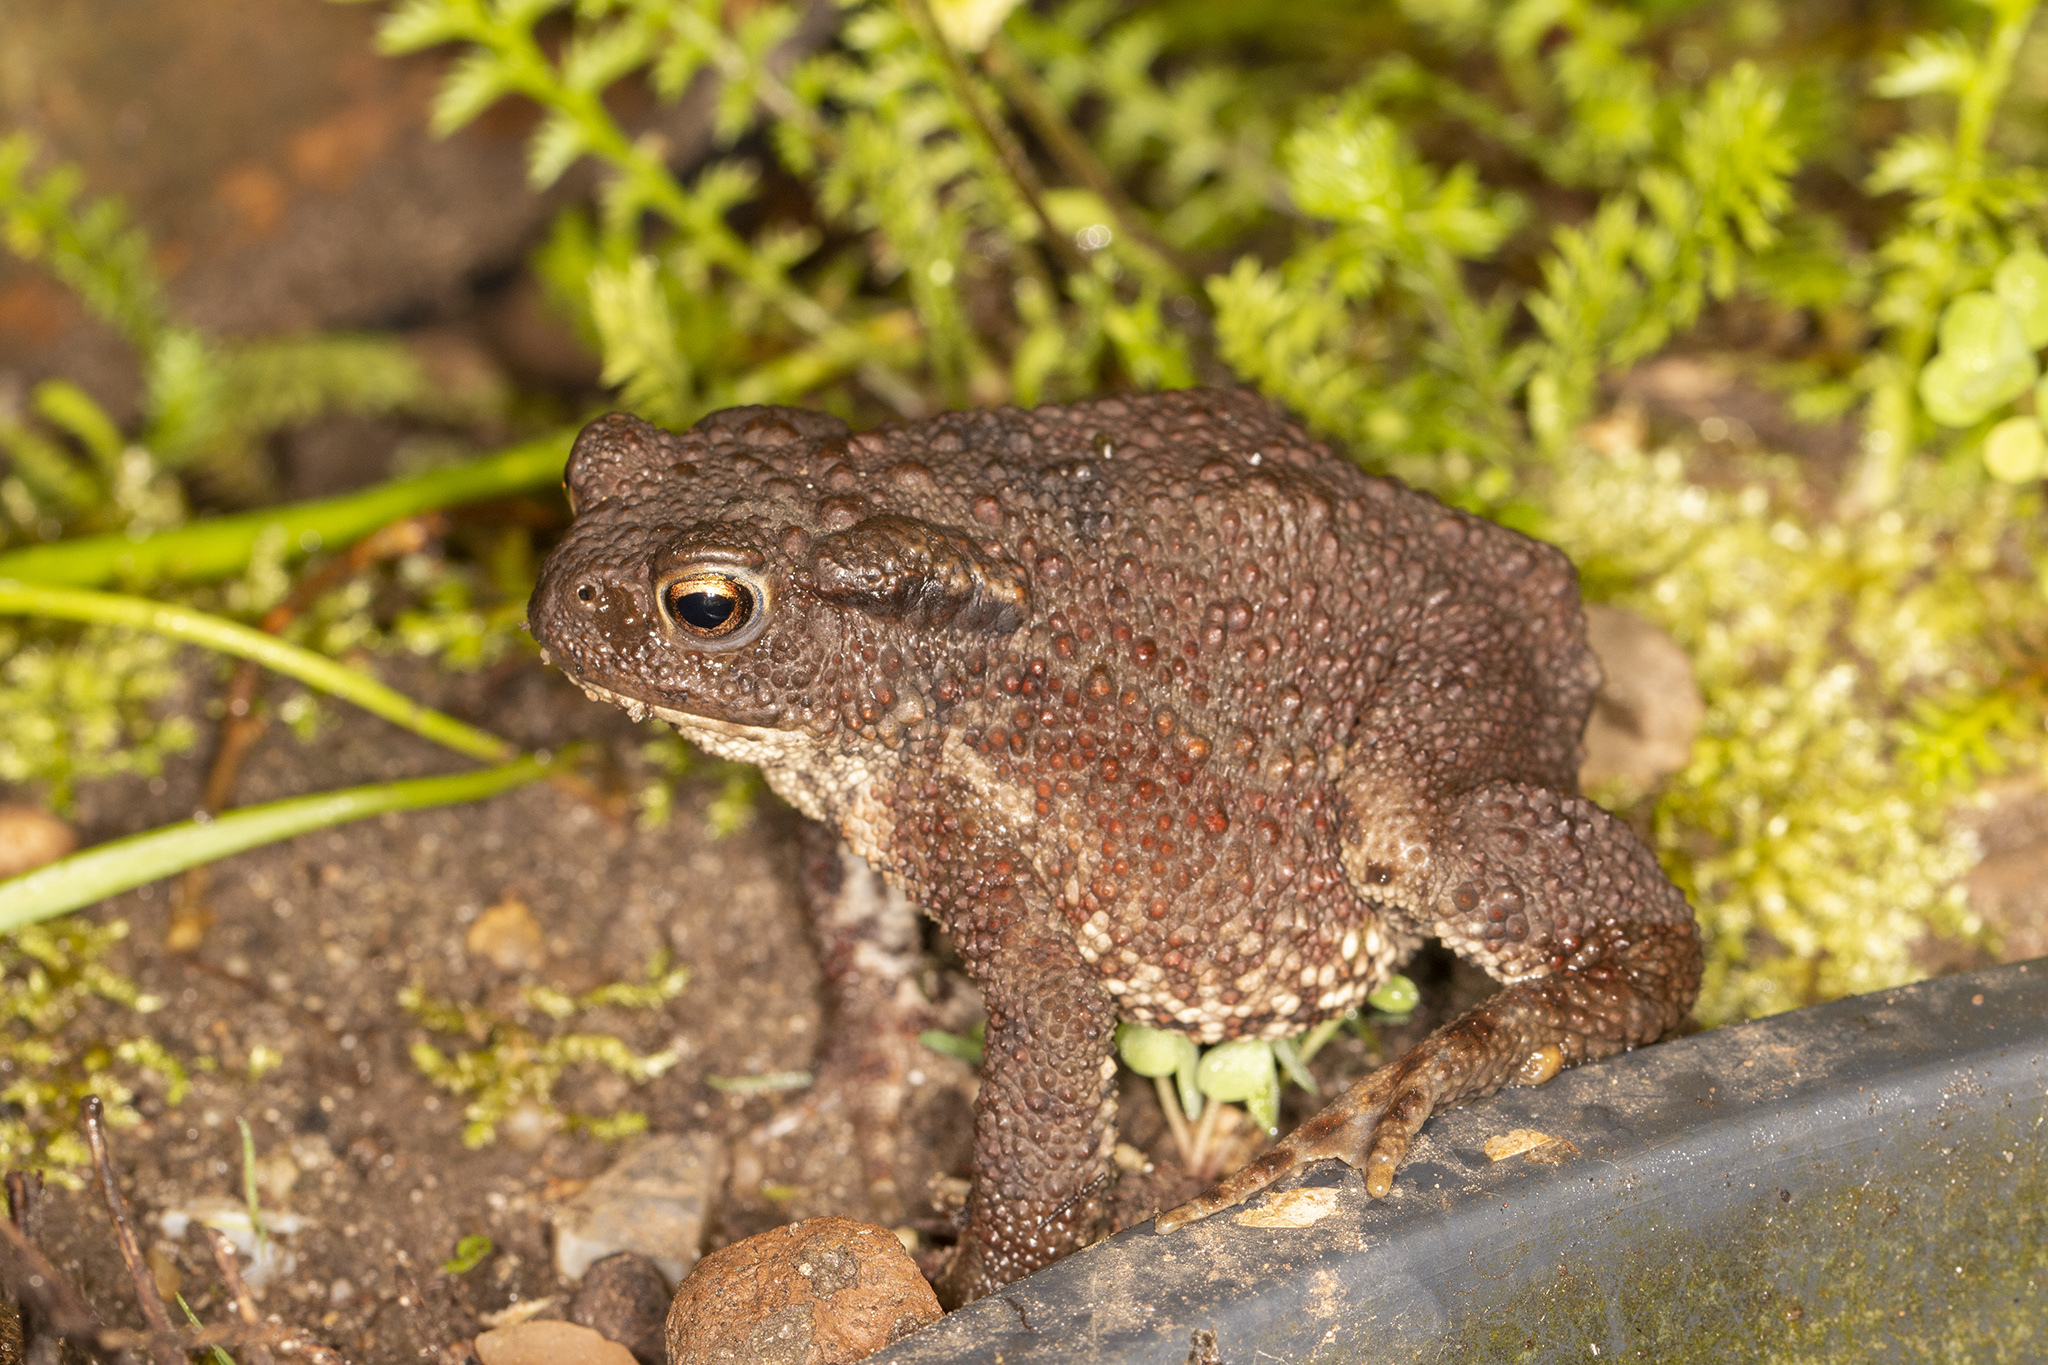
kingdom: Animalia
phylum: Chordata
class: Amphibia
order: Anura
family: Bufonidae
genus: Bufo
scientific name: Bufo bufo
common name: Common toad
